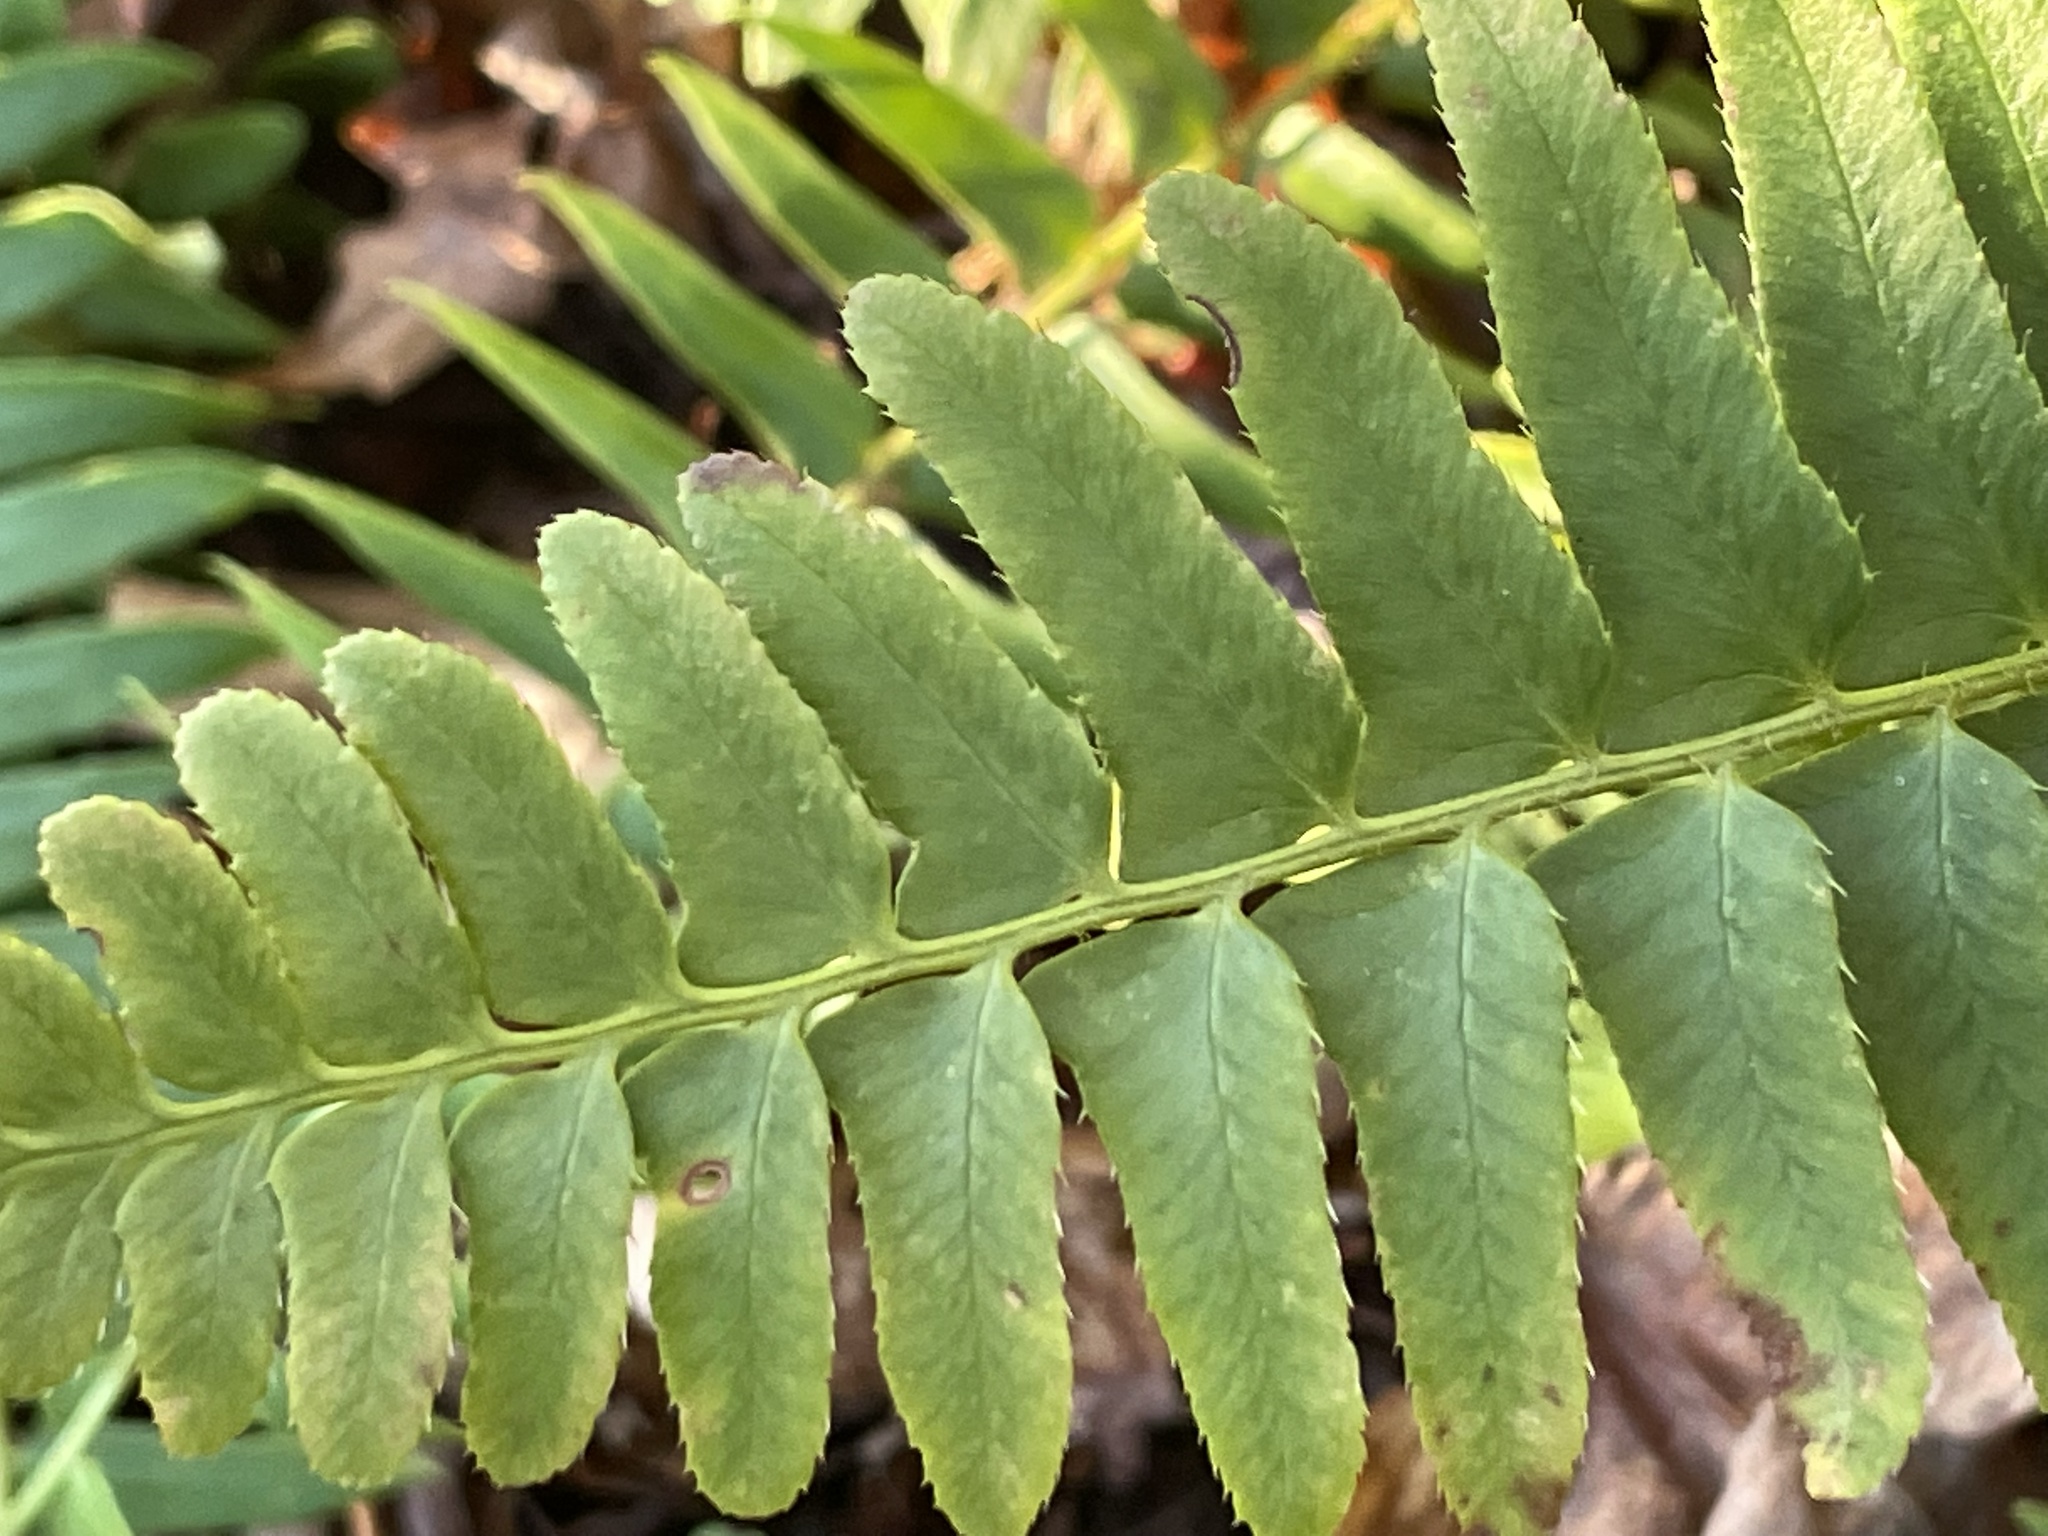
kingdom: Plantae
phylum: Tracheophyta
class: Polypodiopsida
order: Polypodiales
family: Dryopteridaceae
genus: Polystichum
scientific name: Polystichum acrostichoides
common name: Christmas fern
